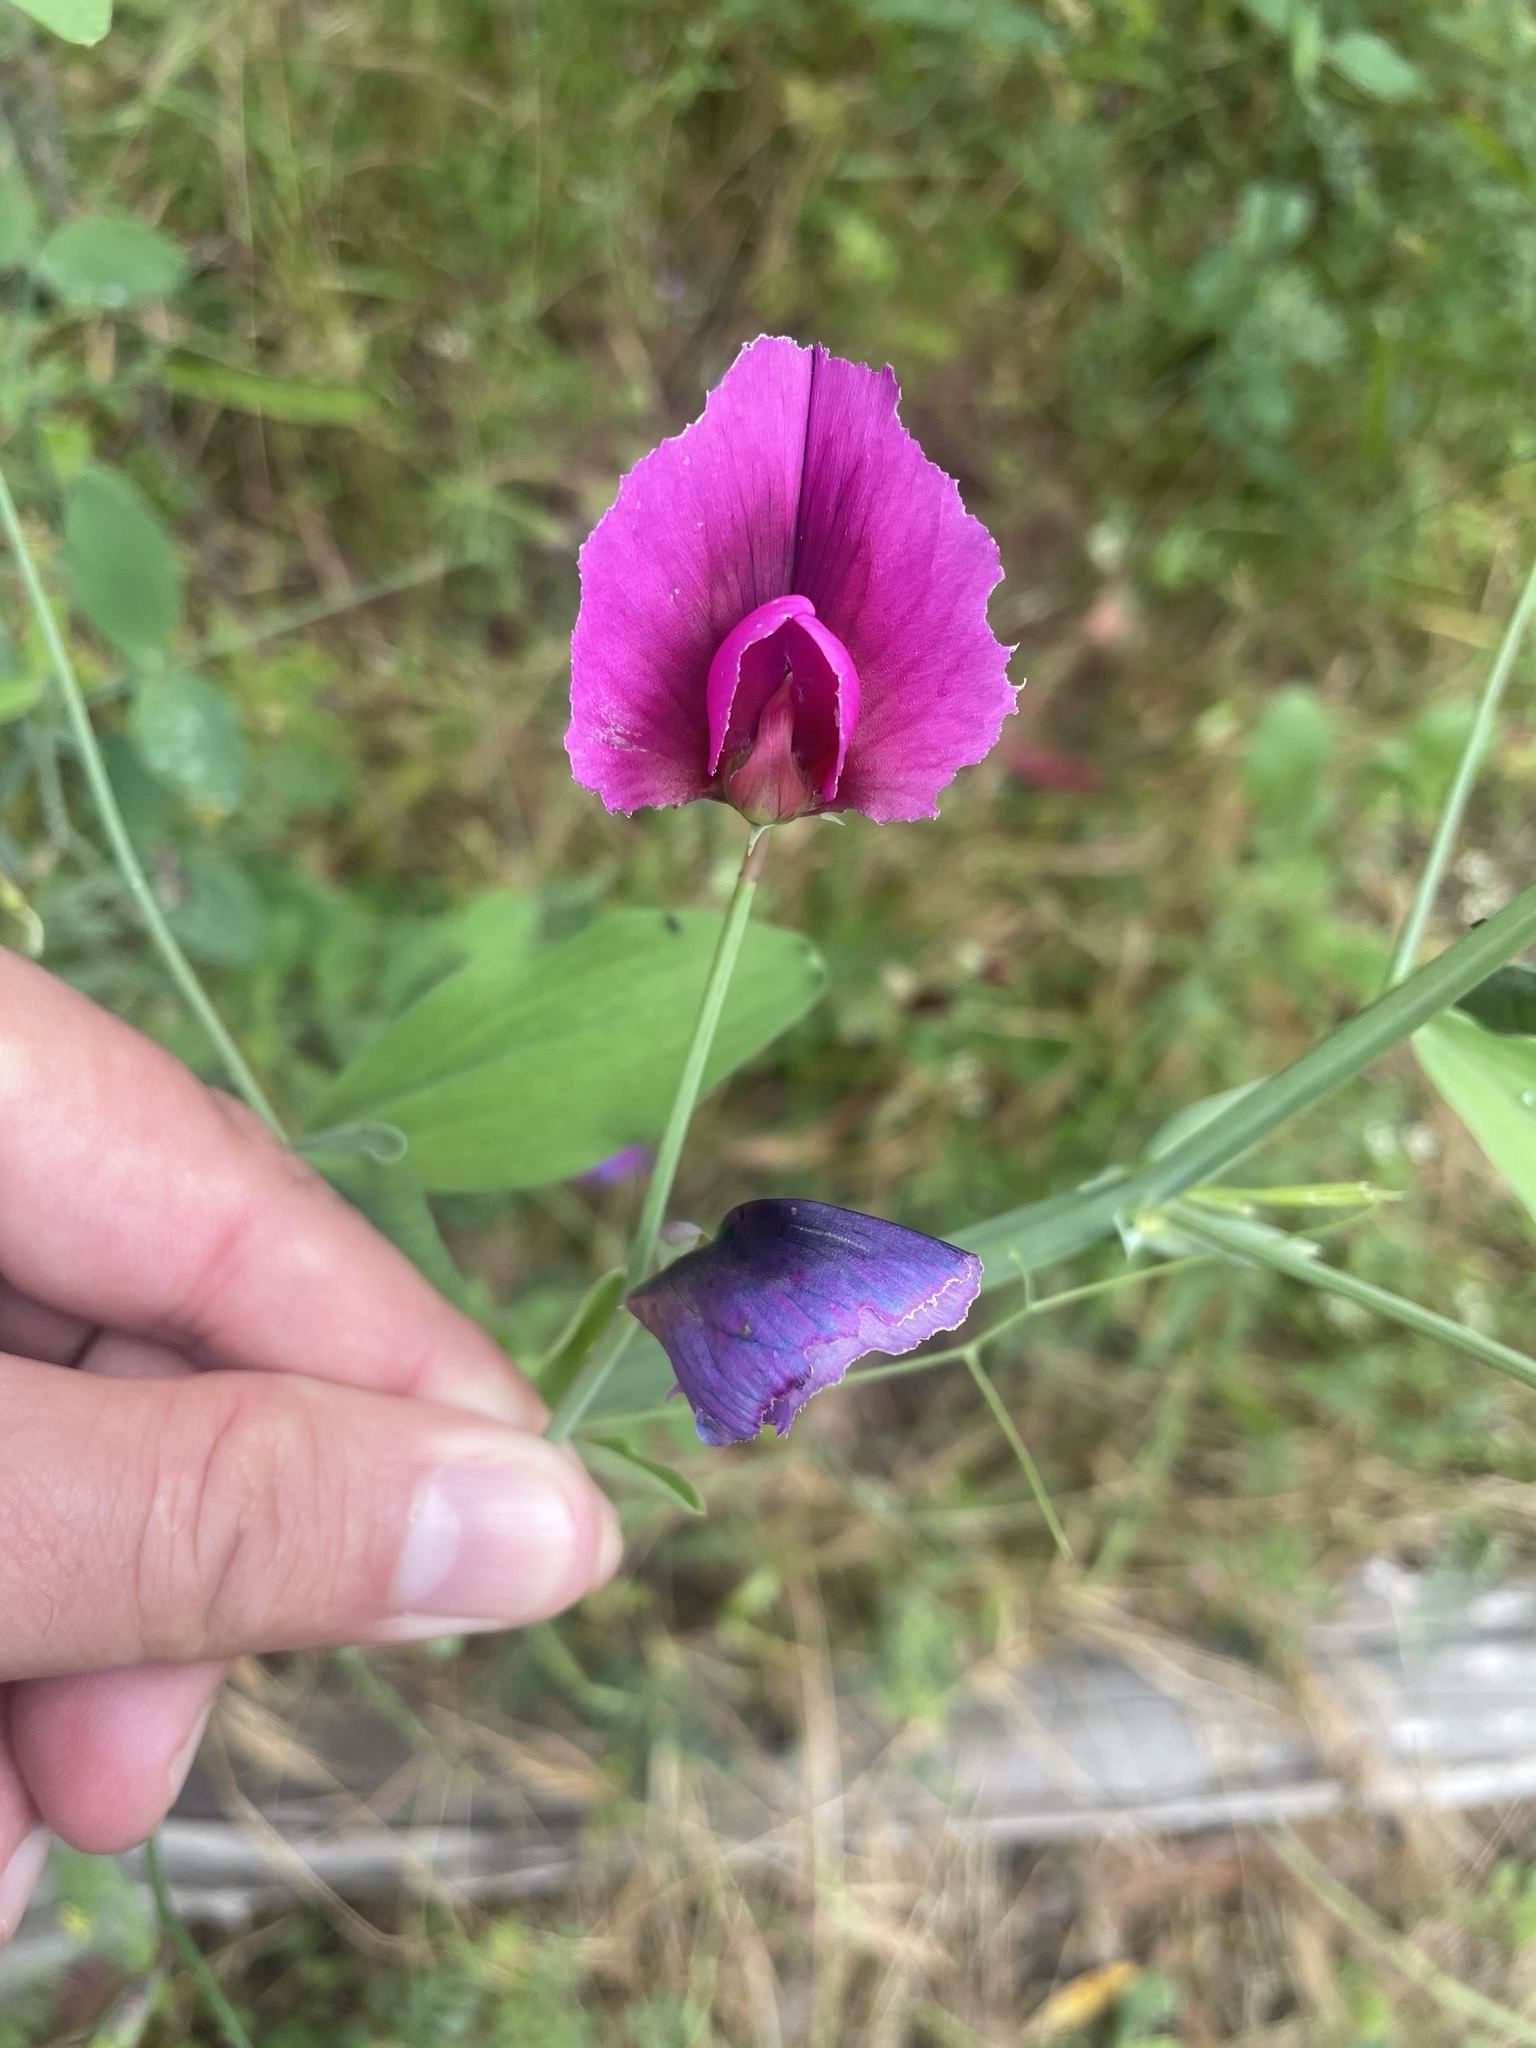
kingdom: Plantae
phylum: Tracheophyta
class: Magnoliopsida
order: Fabales
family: Fabaceae
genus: Lathyrus
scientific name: Lathyrus tingitanus
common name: Tangier pea
